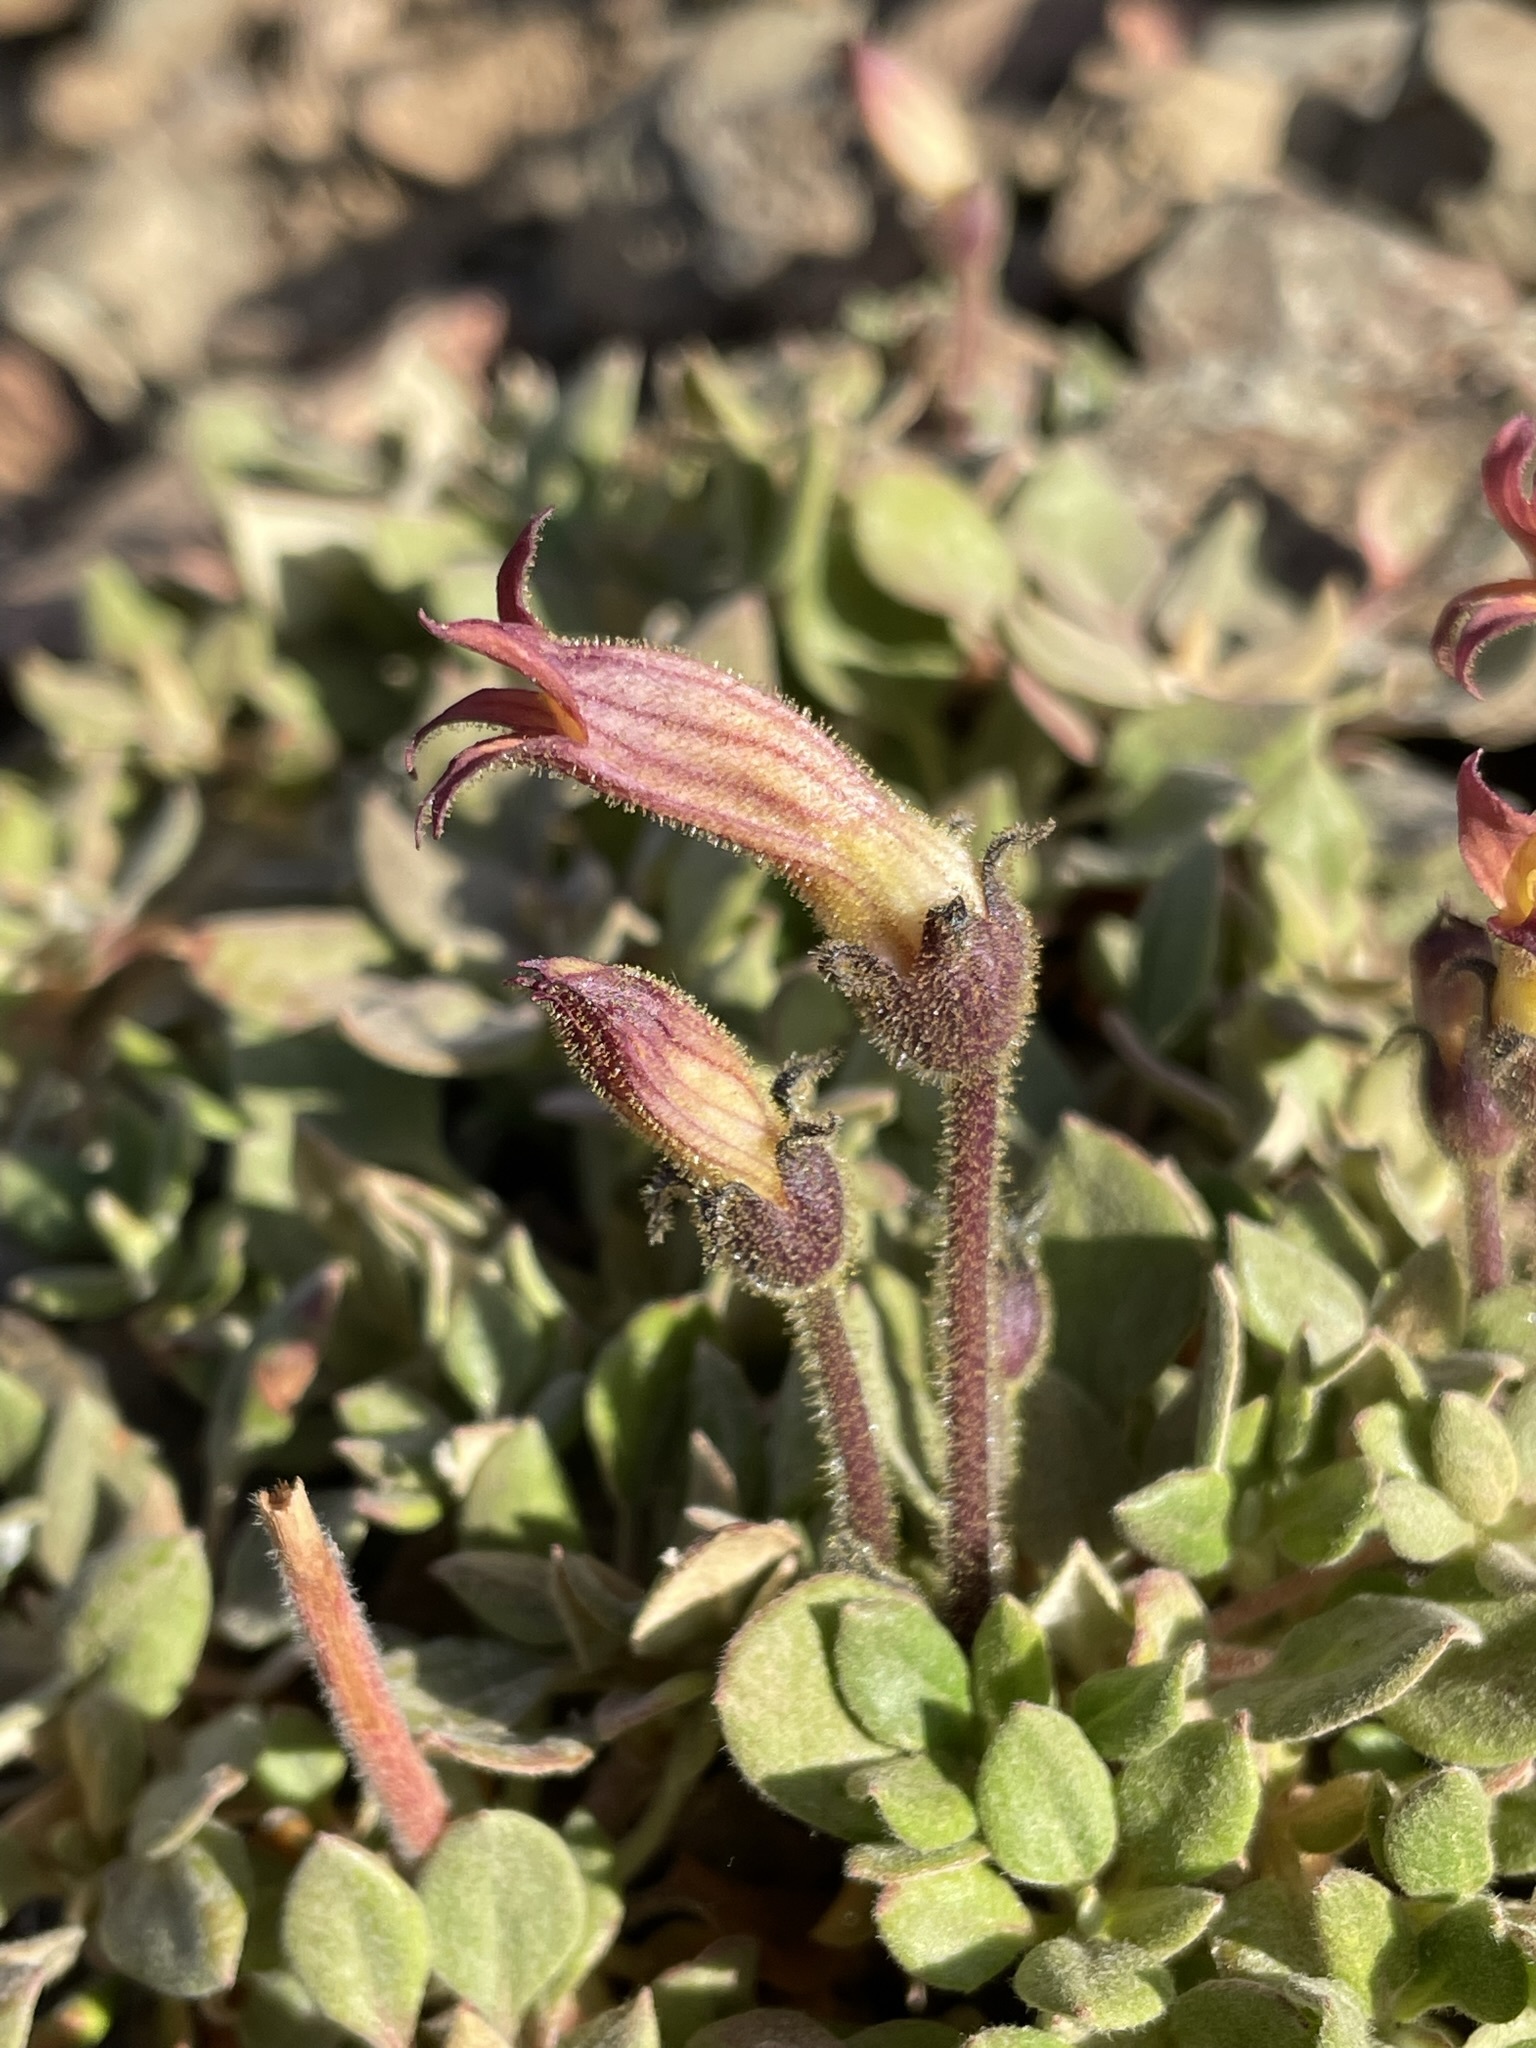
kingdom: Plantae
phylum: Tracheophyta
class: Magnoliopsida
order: Lamiales
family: Orobanchaceae
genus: Aphyllon
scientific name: Aphyllon franciscanum
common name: San francisco broomrape
